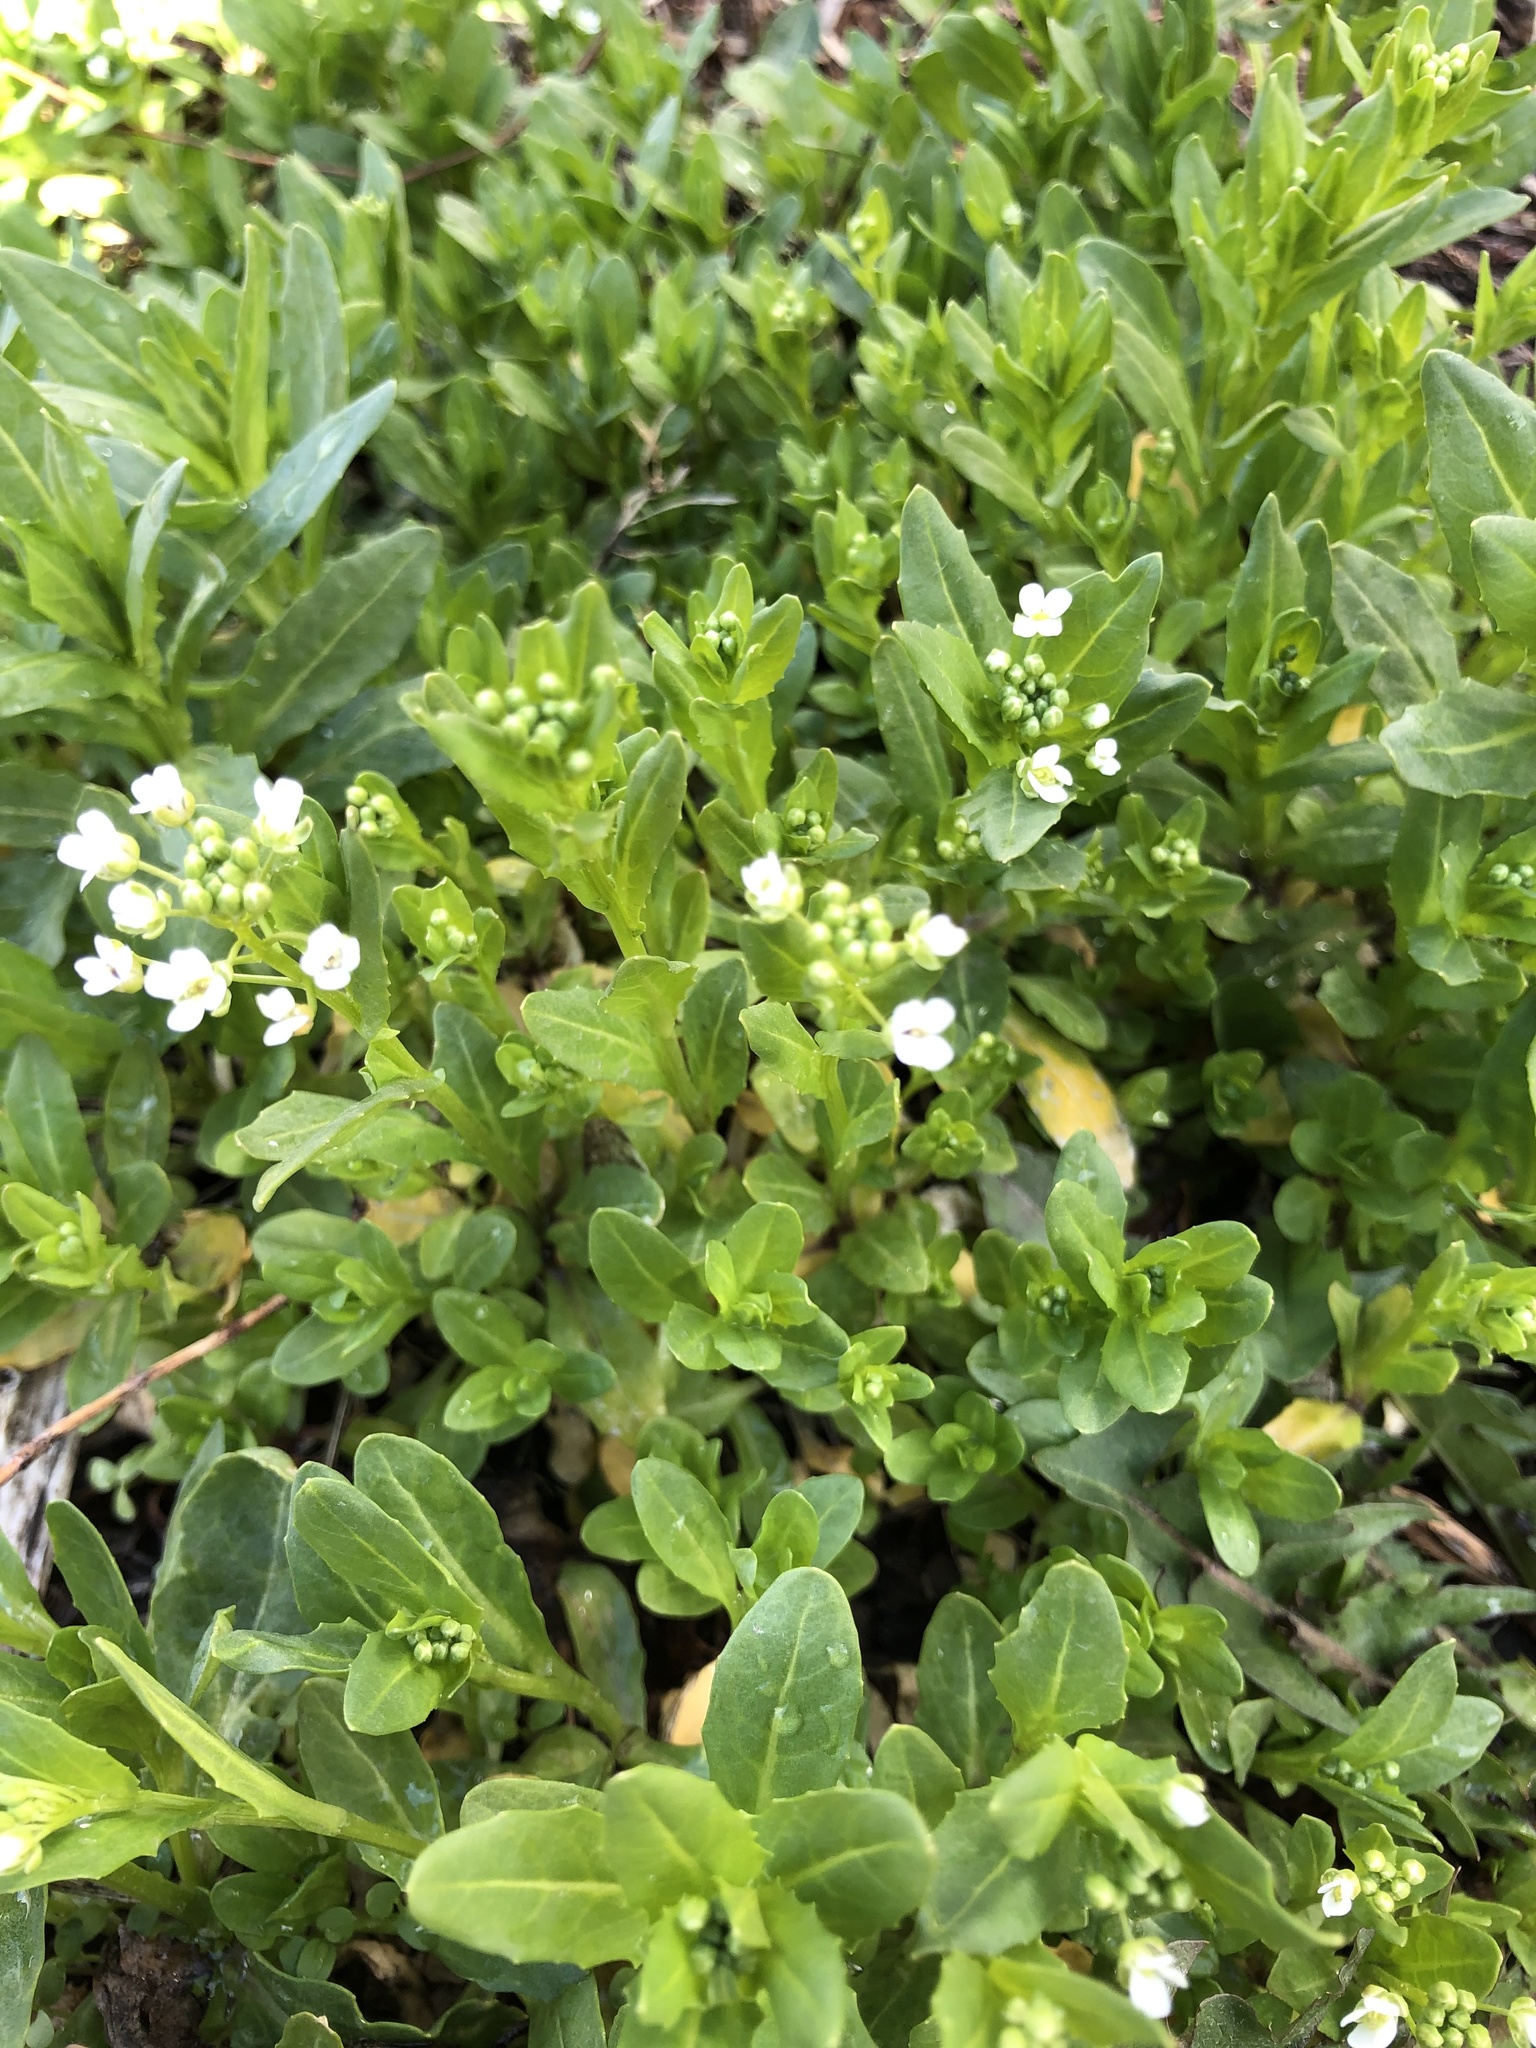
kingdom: Plantae
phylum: Tracheophyta
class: Magnoliopsida
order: Brassicales
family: Brassicaceae
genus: Thlaspi
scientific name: Thlaspi arvense
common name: Field pennycress
